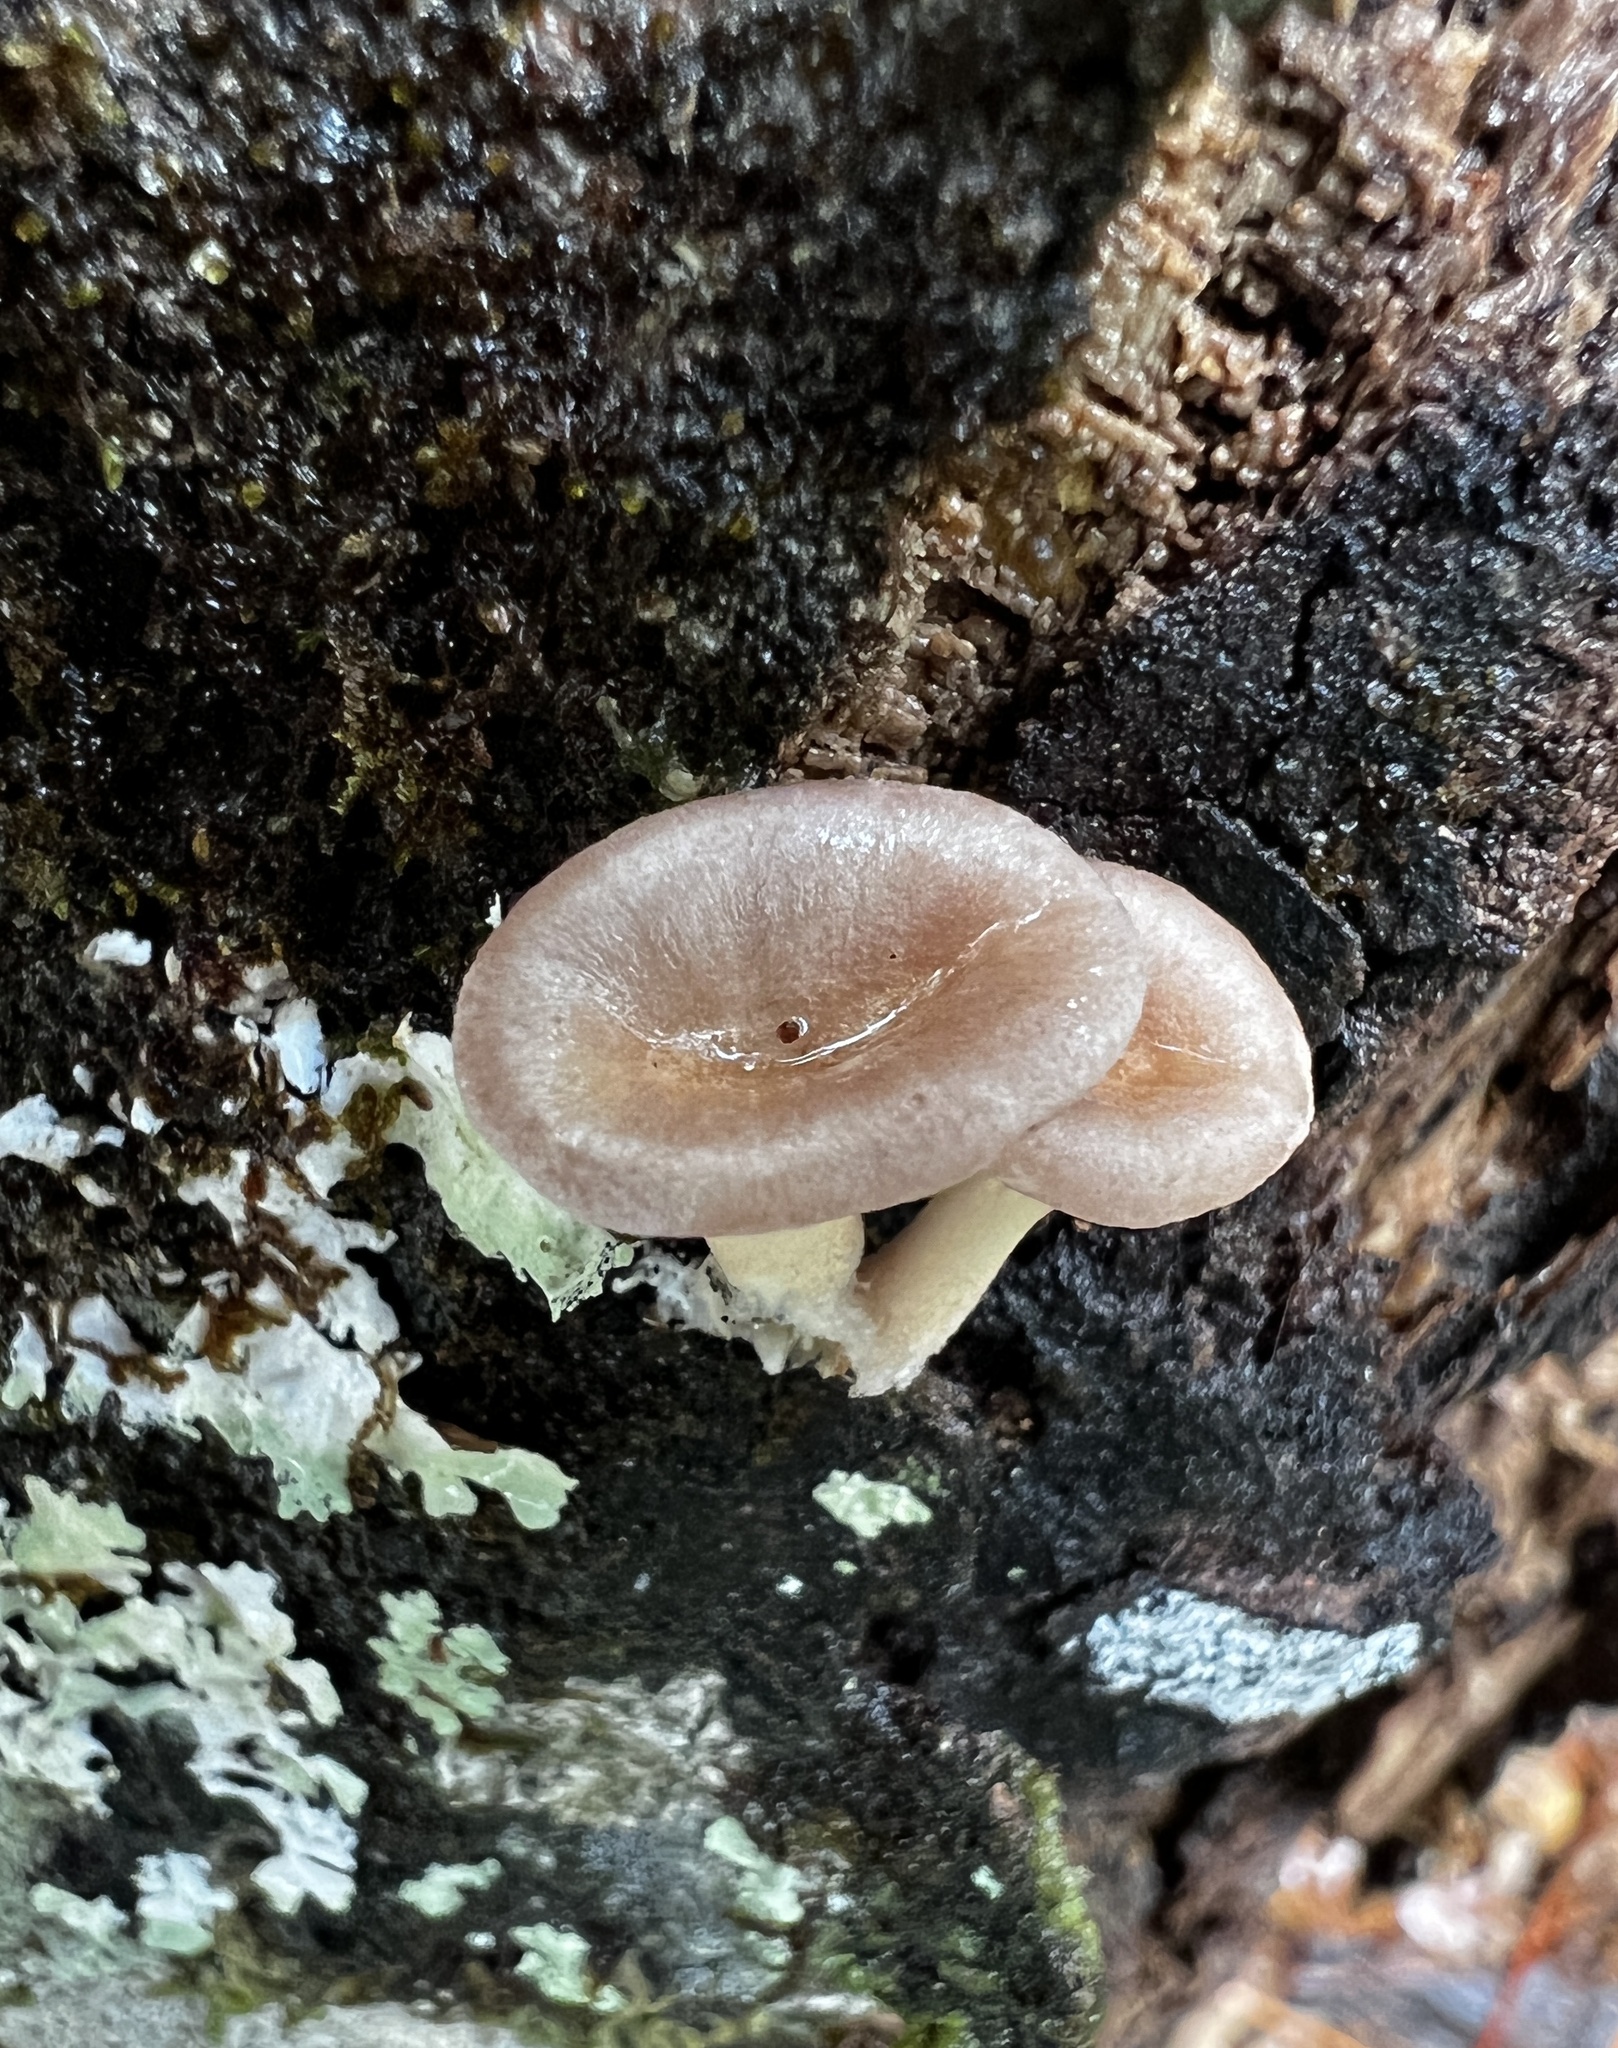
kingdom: Fungi
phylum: Basidiomycota
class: Agaricomycetes
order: Polyporales
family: Panaceae
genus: Panus
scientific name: Panus conchatus
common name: Lilac oysterling
